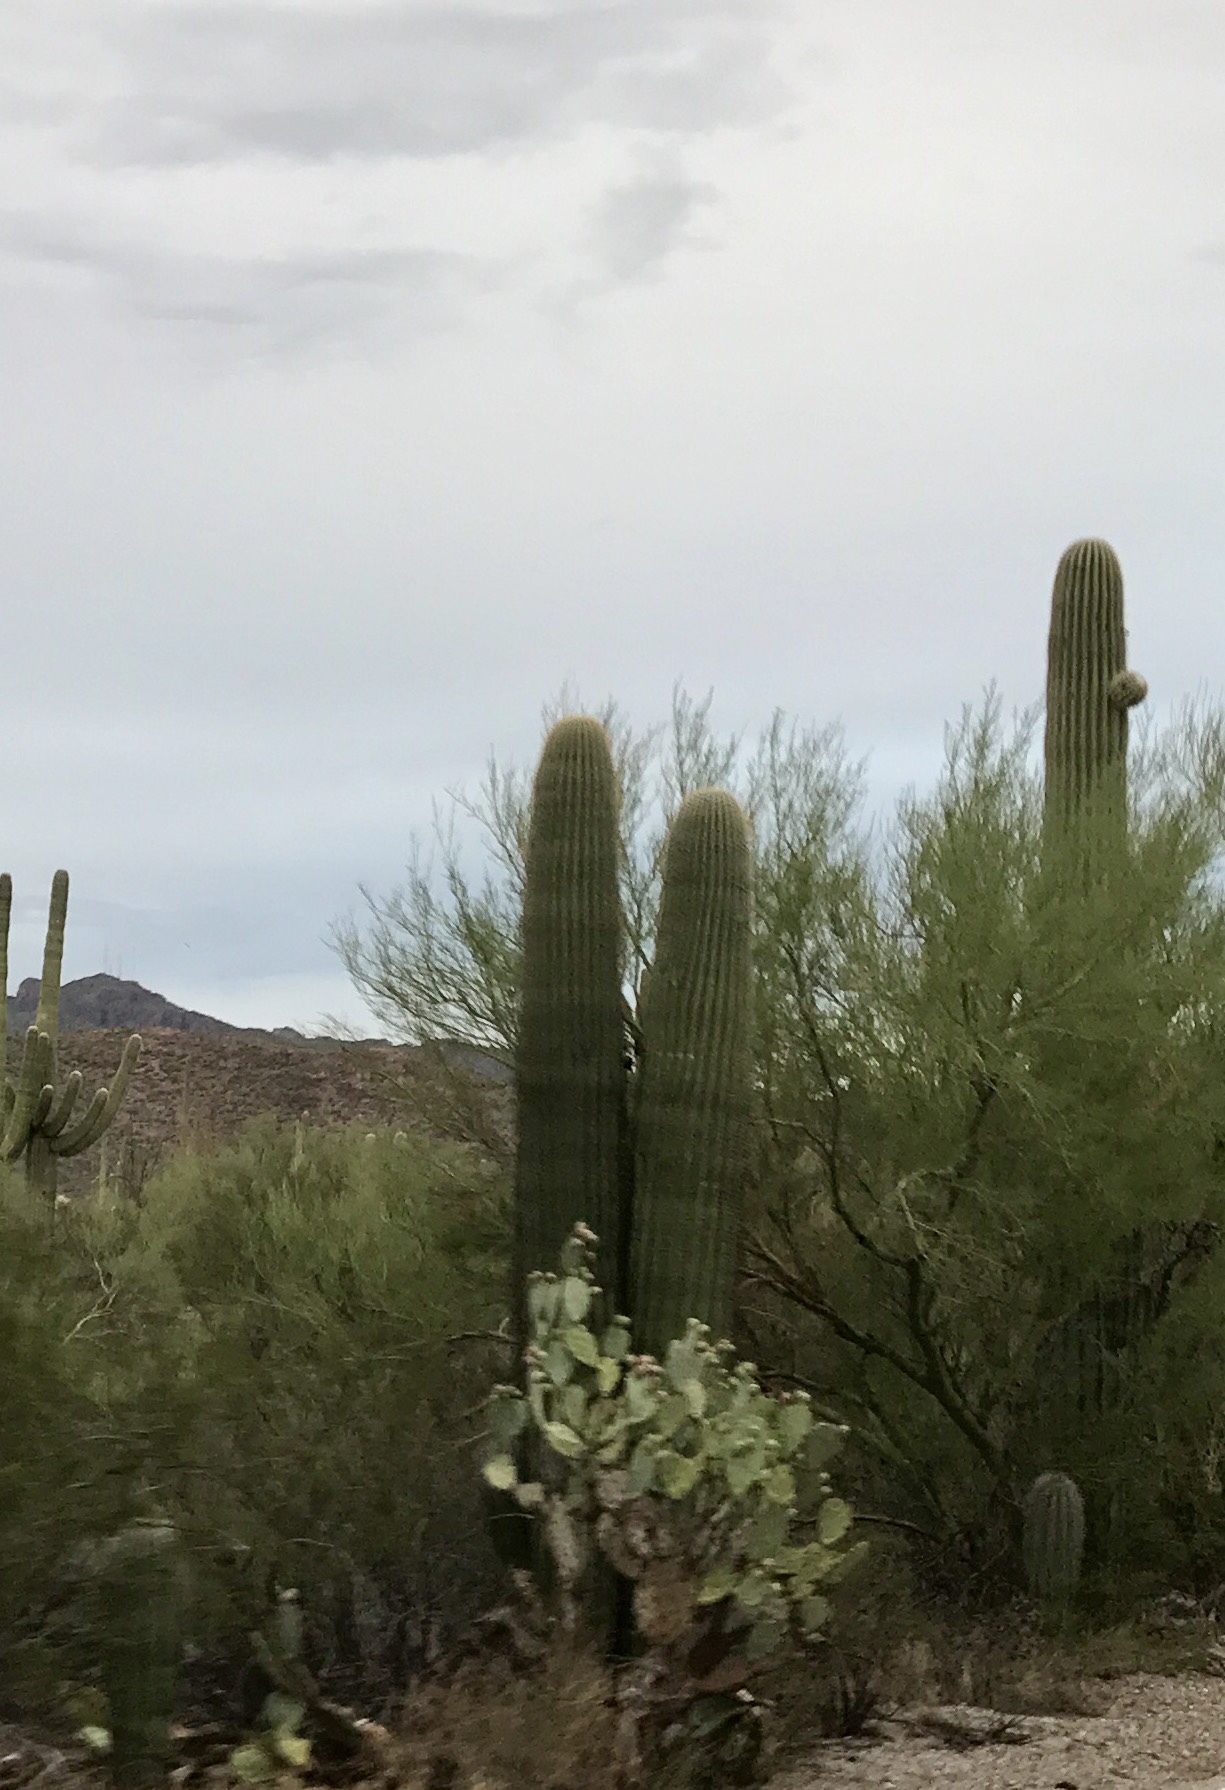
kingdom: Plantae
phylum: Tracheophyta
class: Magnoliopsida
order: Caryophyllales
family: Cactaceae
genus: Carnegiea
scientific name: Carnegiea gigantea
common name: Saguaro
